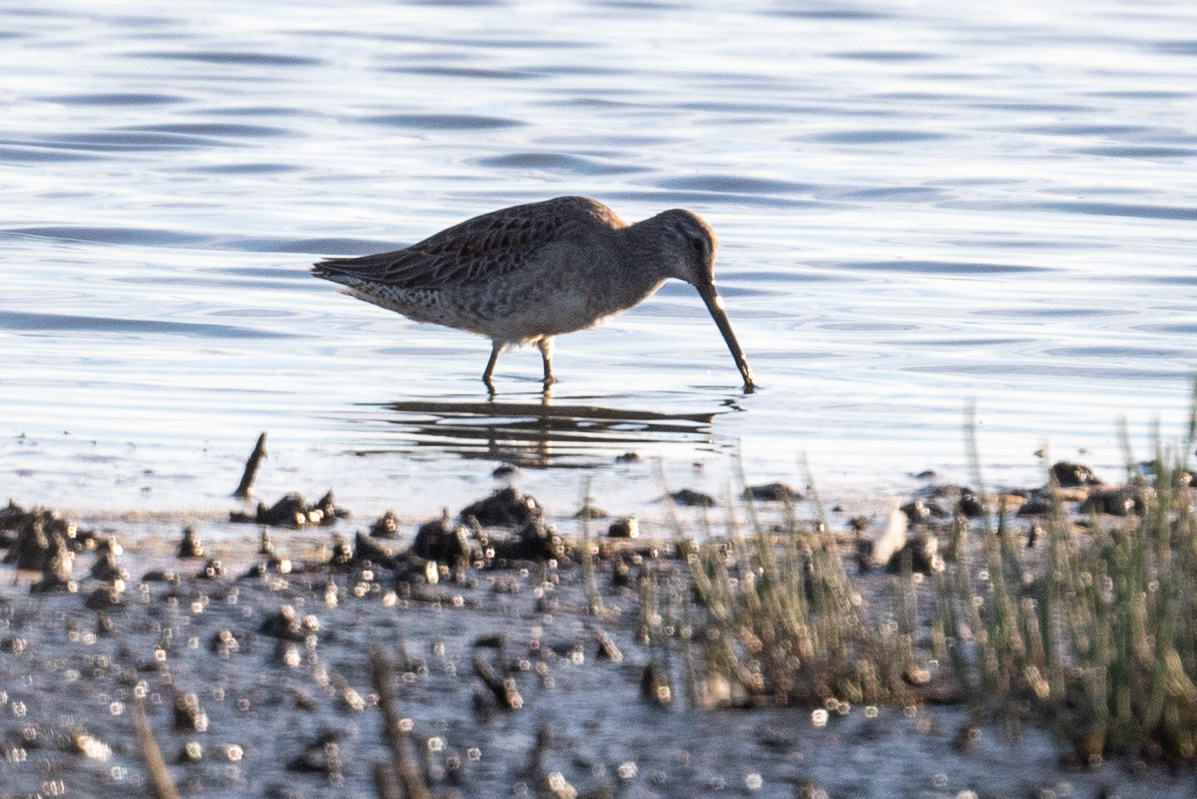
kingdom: Animalia
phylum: Chordata
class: Aves
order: Charadriiformes
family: Scolopacidae
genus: Limnodromus
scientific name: Limnodromus scolopaceus
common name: Long-billed dowitcher
